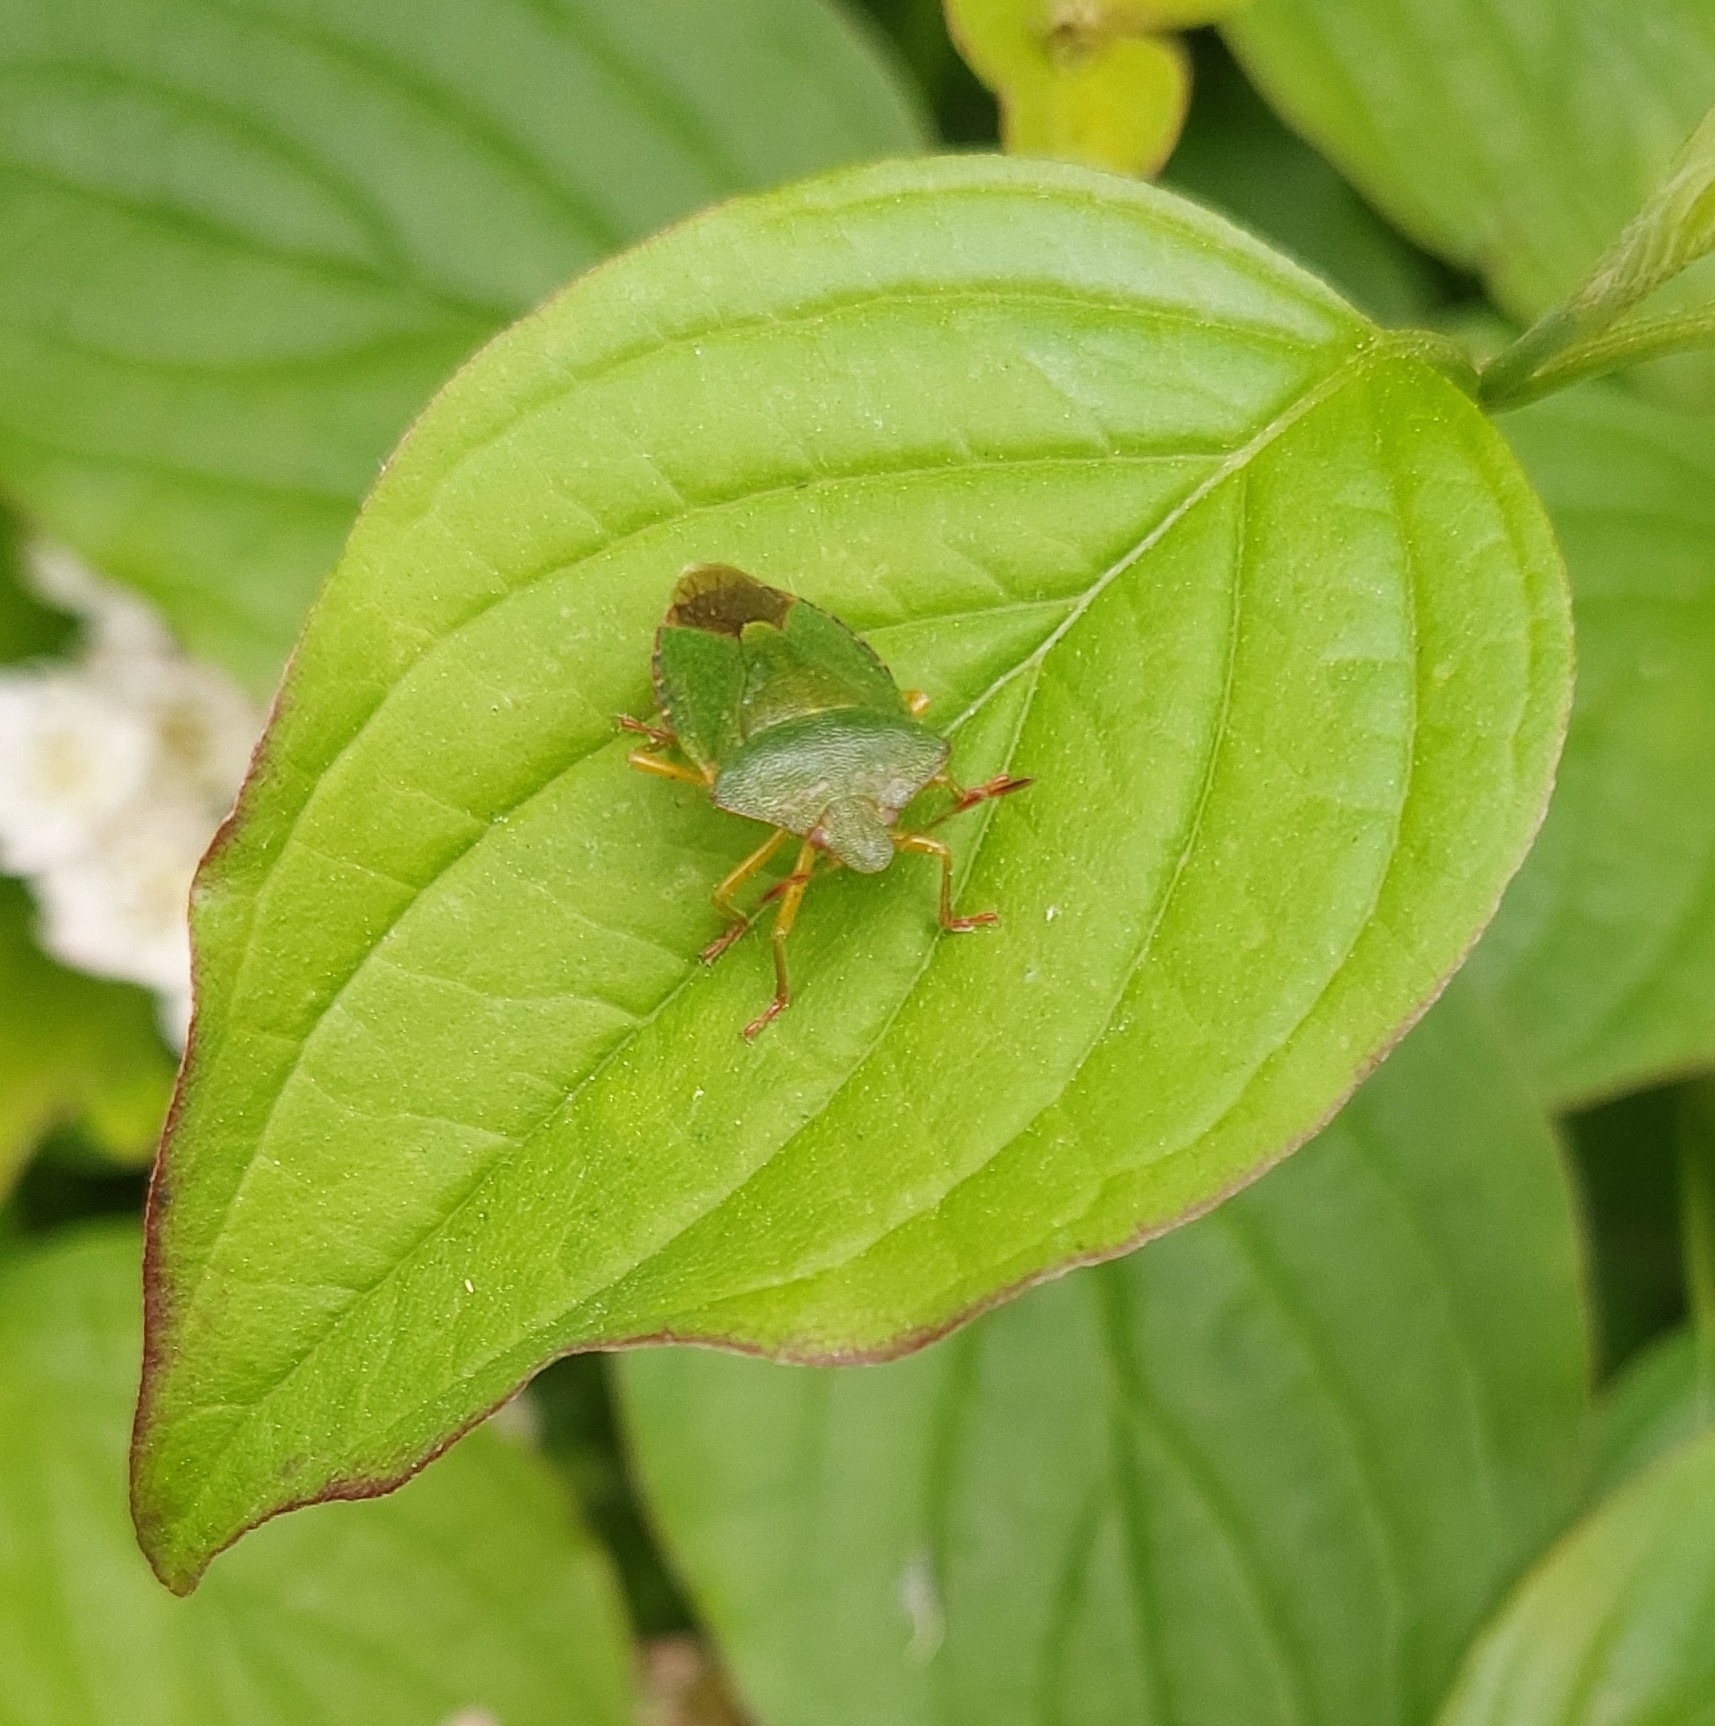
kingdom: Animalia
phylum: Arthropoda
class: Insecta
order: Hemiptera
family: Pentatomidae
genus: Palomena
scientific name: Palomena prasina
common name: Green shieldbug
